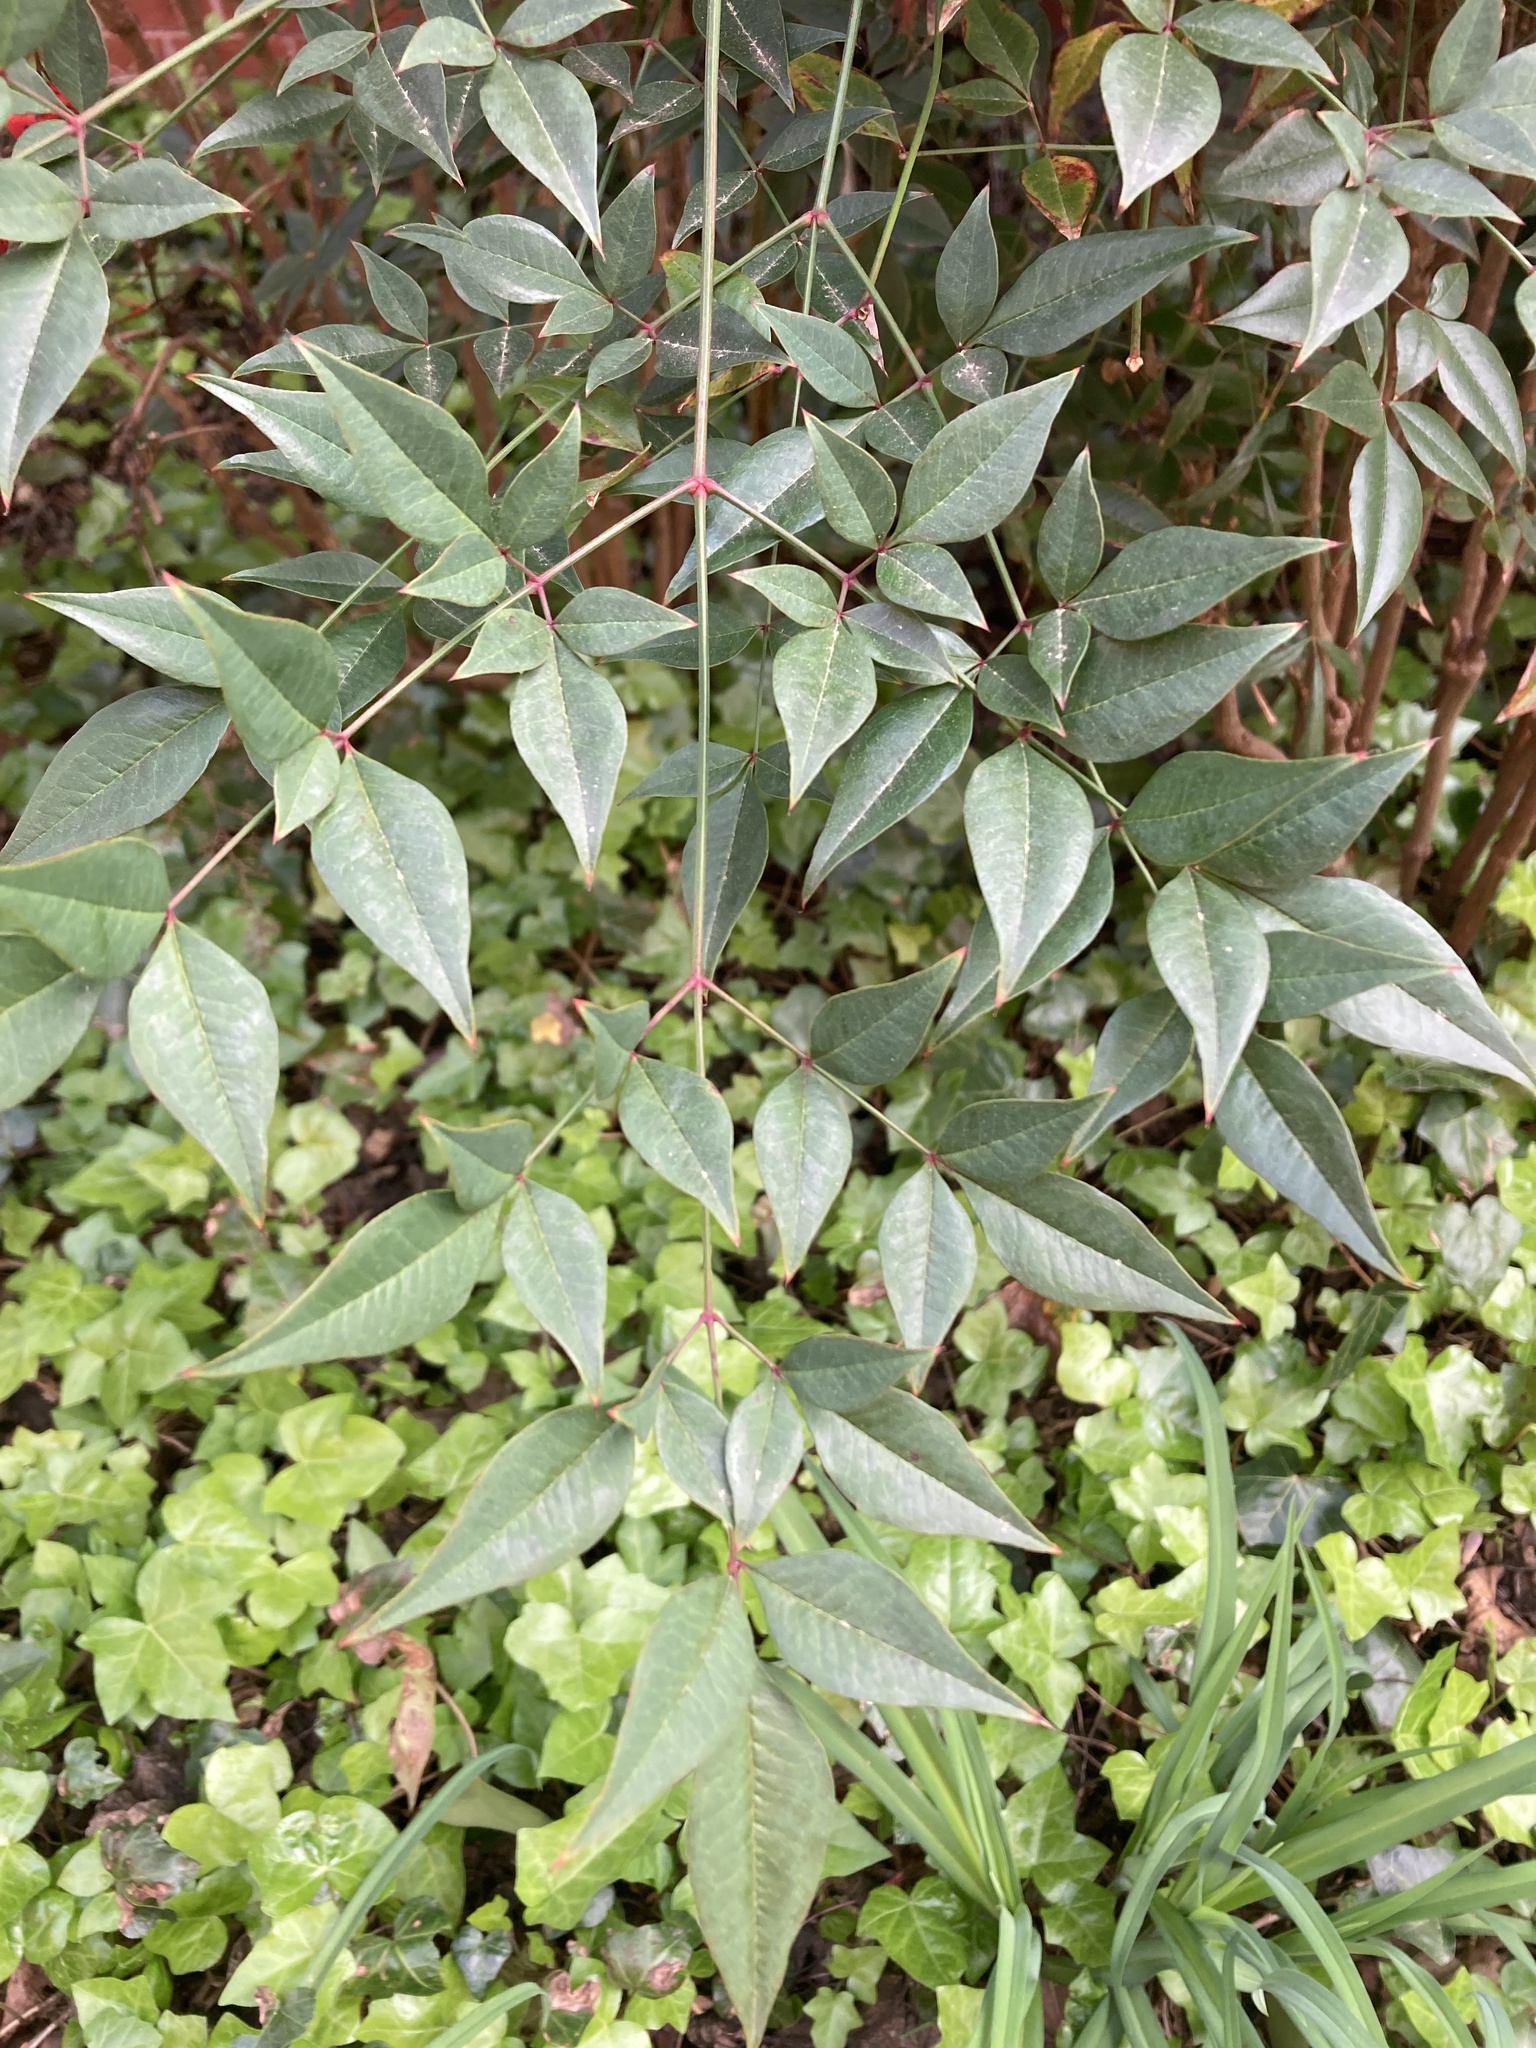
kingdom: Plantae
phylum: Tracheophyta
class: Magnoliopsida
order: Ranunculales
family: Berberidaceae
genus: Nandina
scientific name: Nandina domestica
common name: Sacred bamboo
